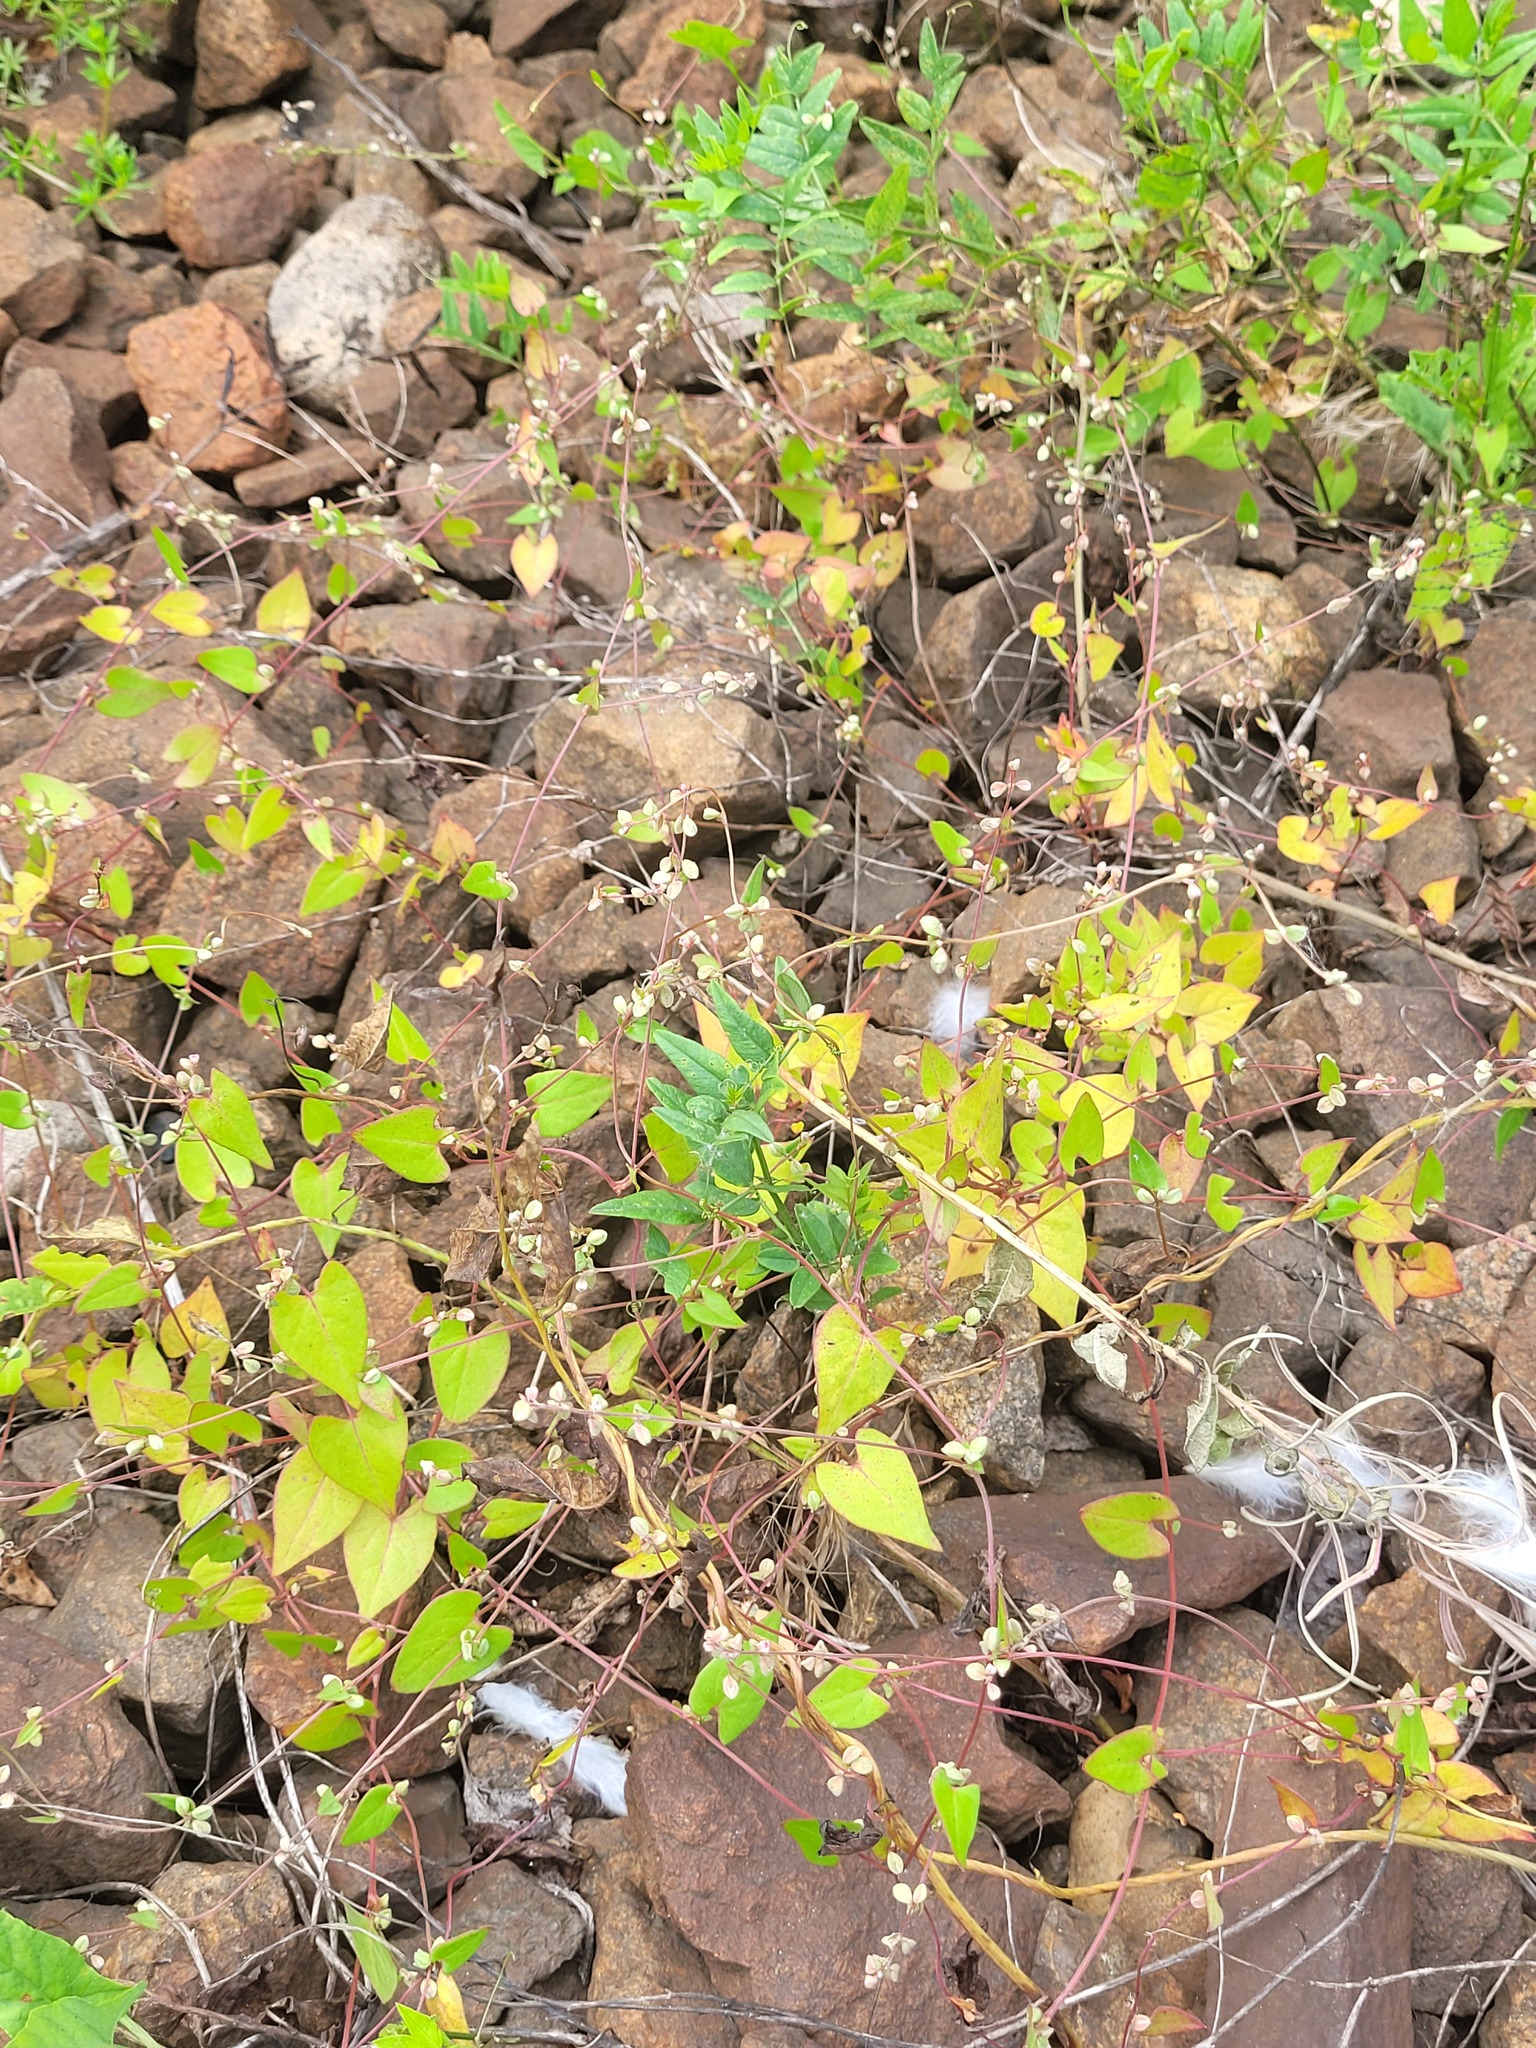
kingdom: Plantae
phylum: Tracheophyta
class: Magnoliopsida
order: Fabales
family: Fabaceae
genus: Vicia
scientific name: Vicia sepium
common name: Bush vetch
